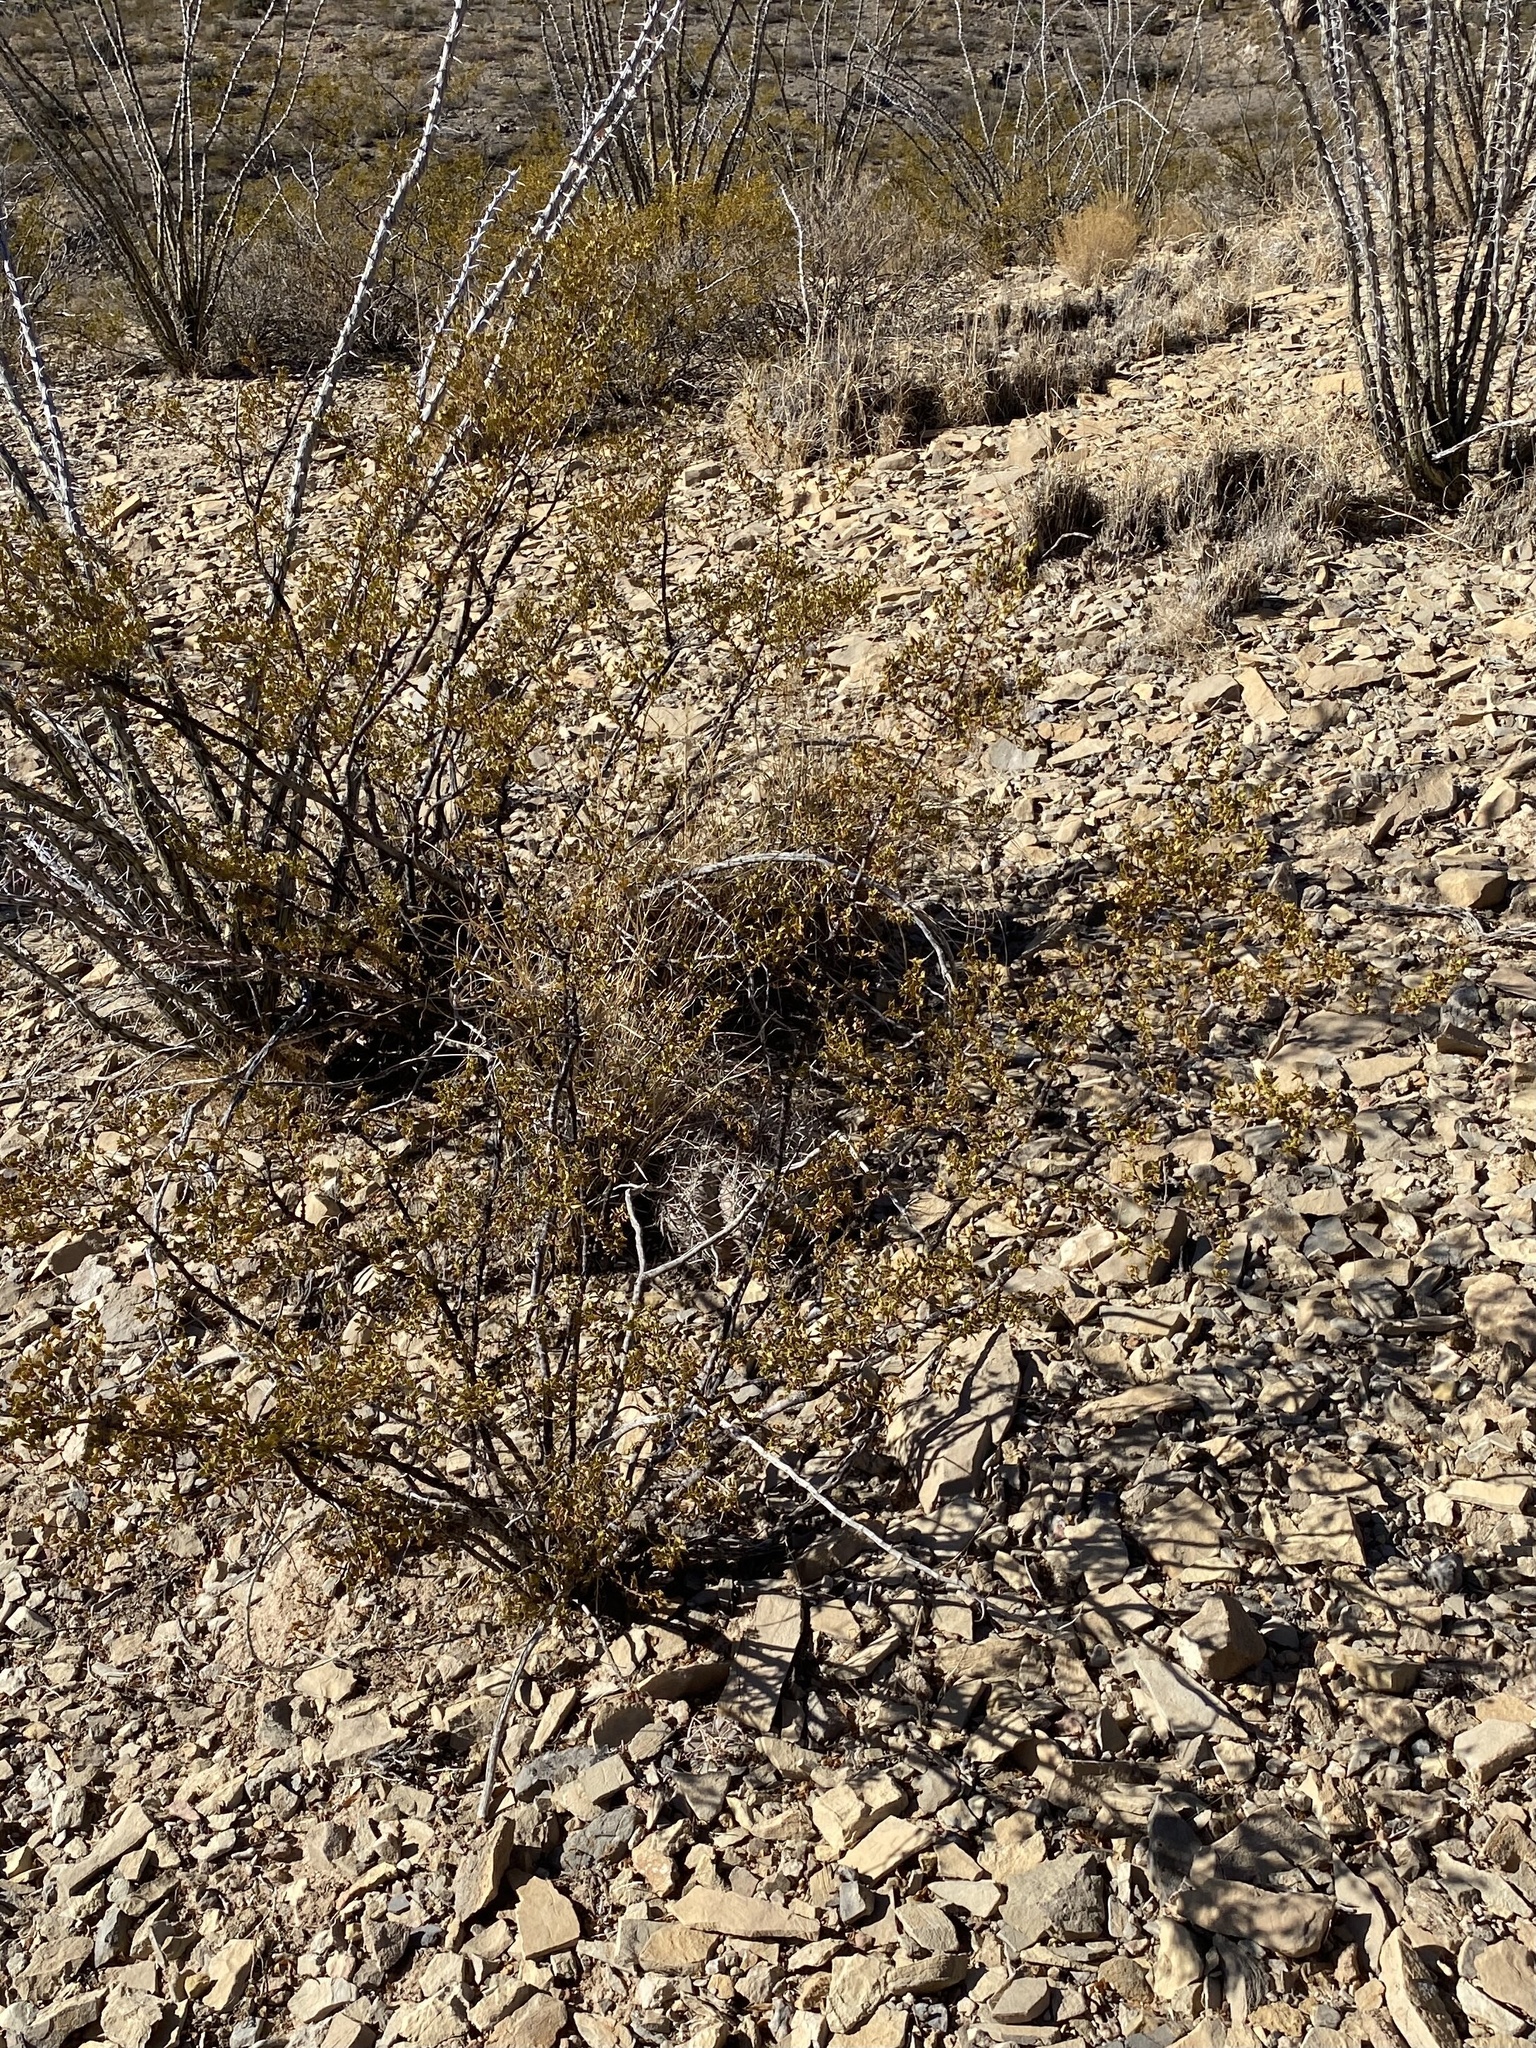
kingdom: Plantae
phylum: Tracheophyta
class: Magnoliopsida
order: Zygophyllales
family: Zygophyllaceae
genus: Larrea
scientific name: Larrea tridentata
